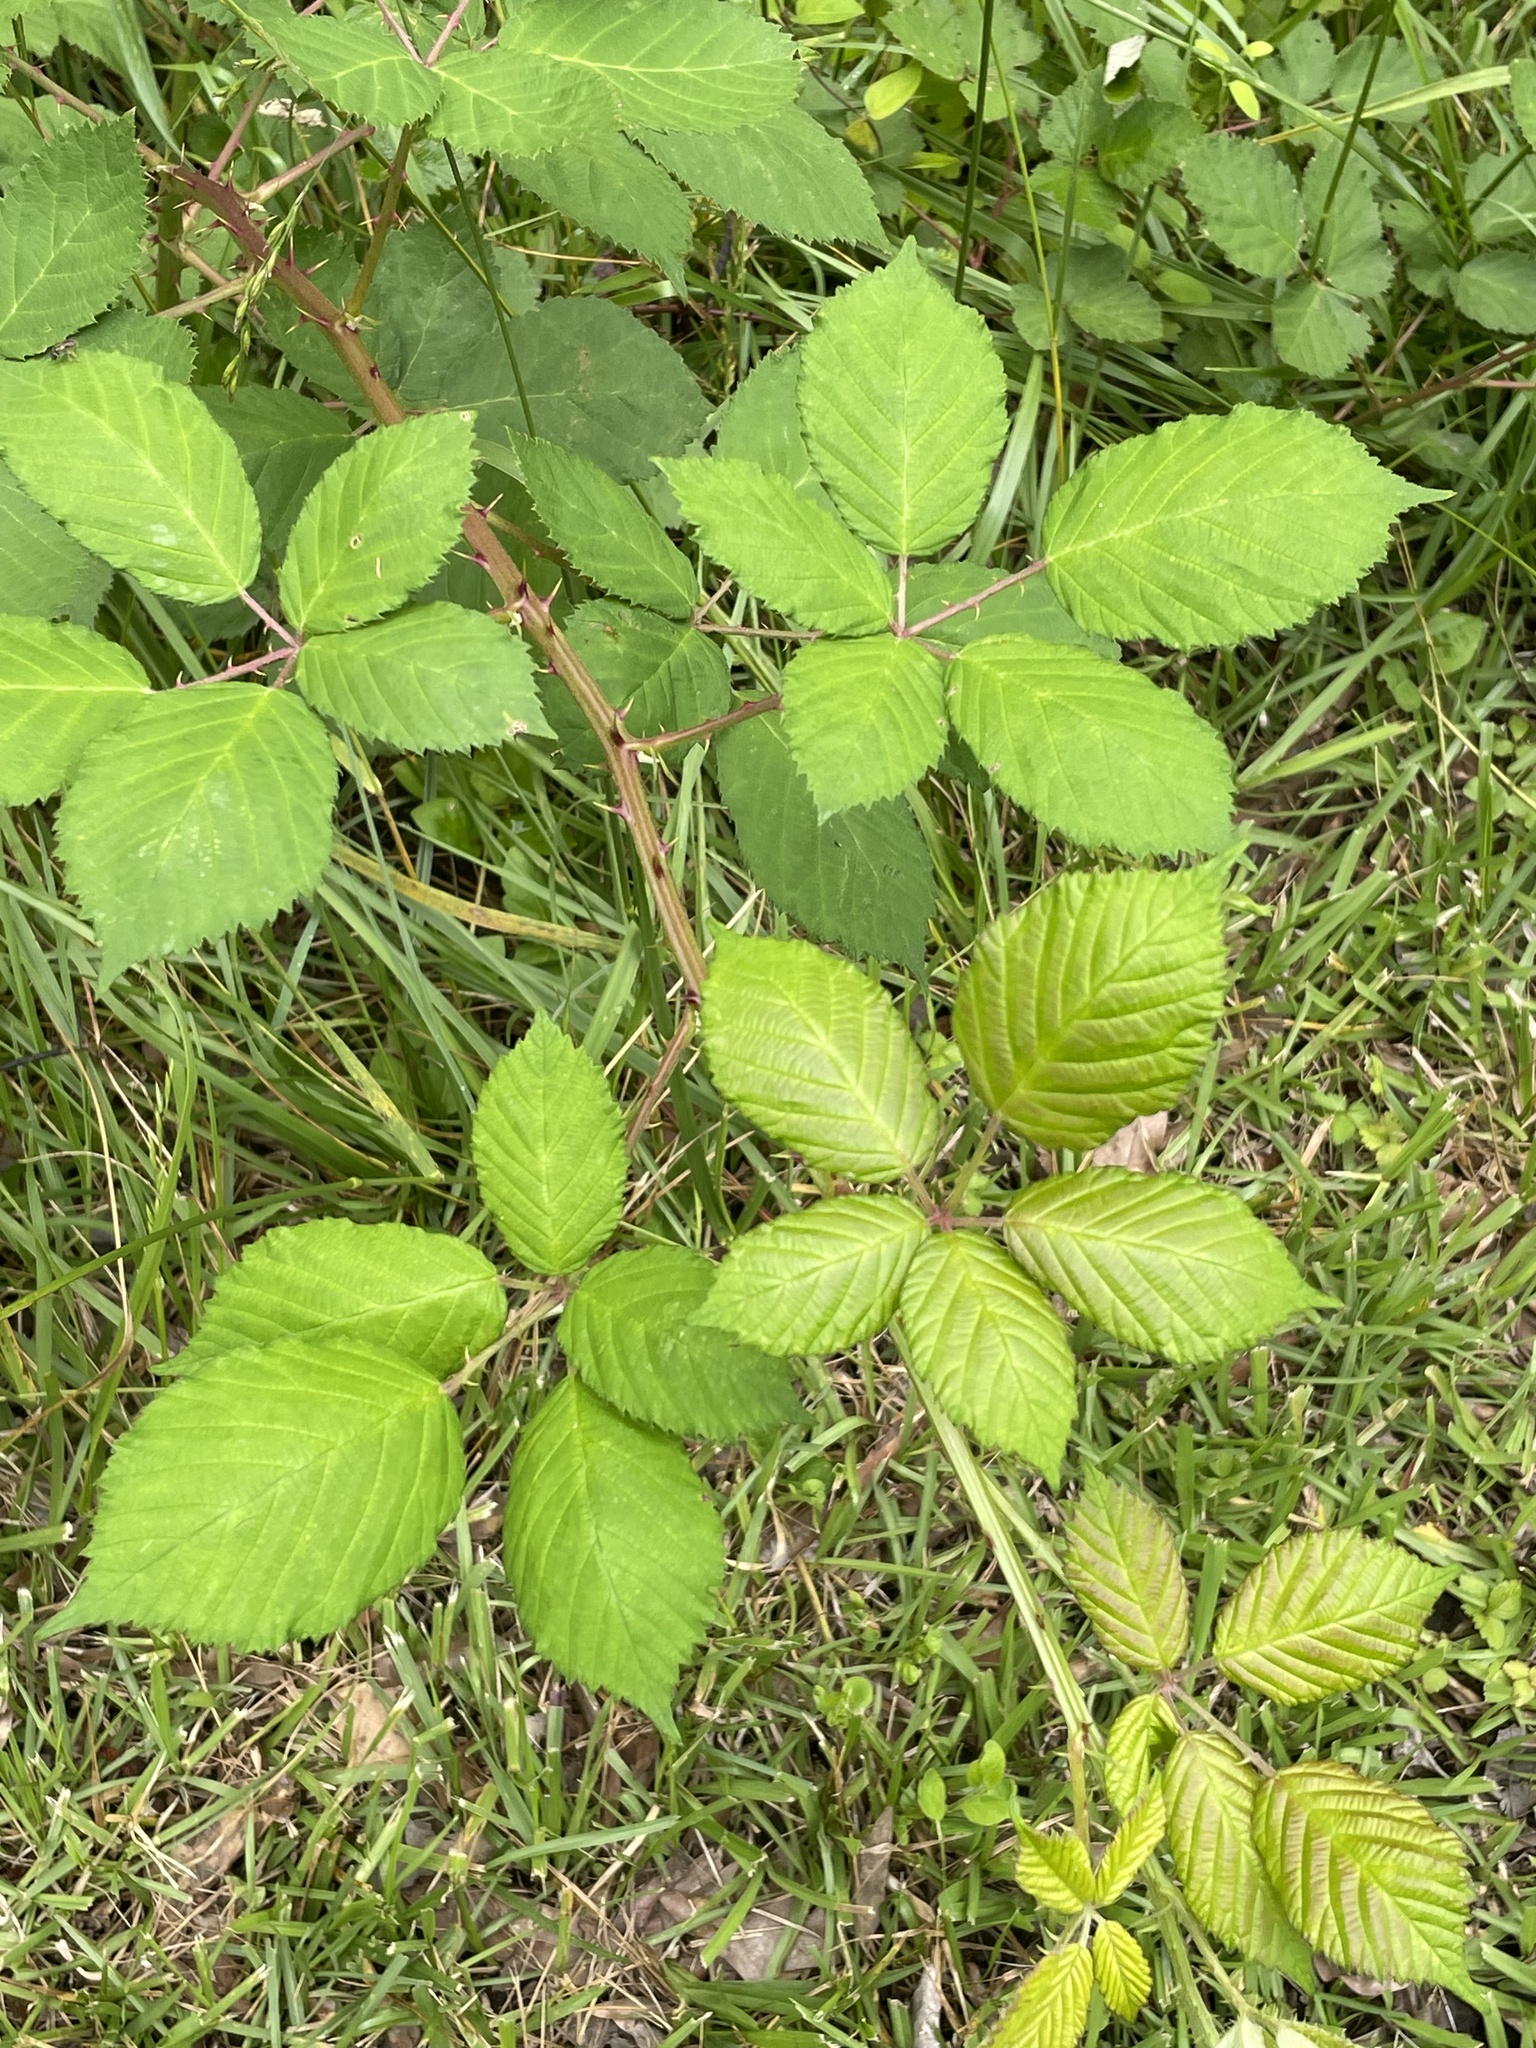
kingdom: Plantae
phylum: Tracheophyta
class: Magnoliopsida
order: Rosales
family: Rosaceae
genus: Rubus
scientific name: Rubus bifrons
